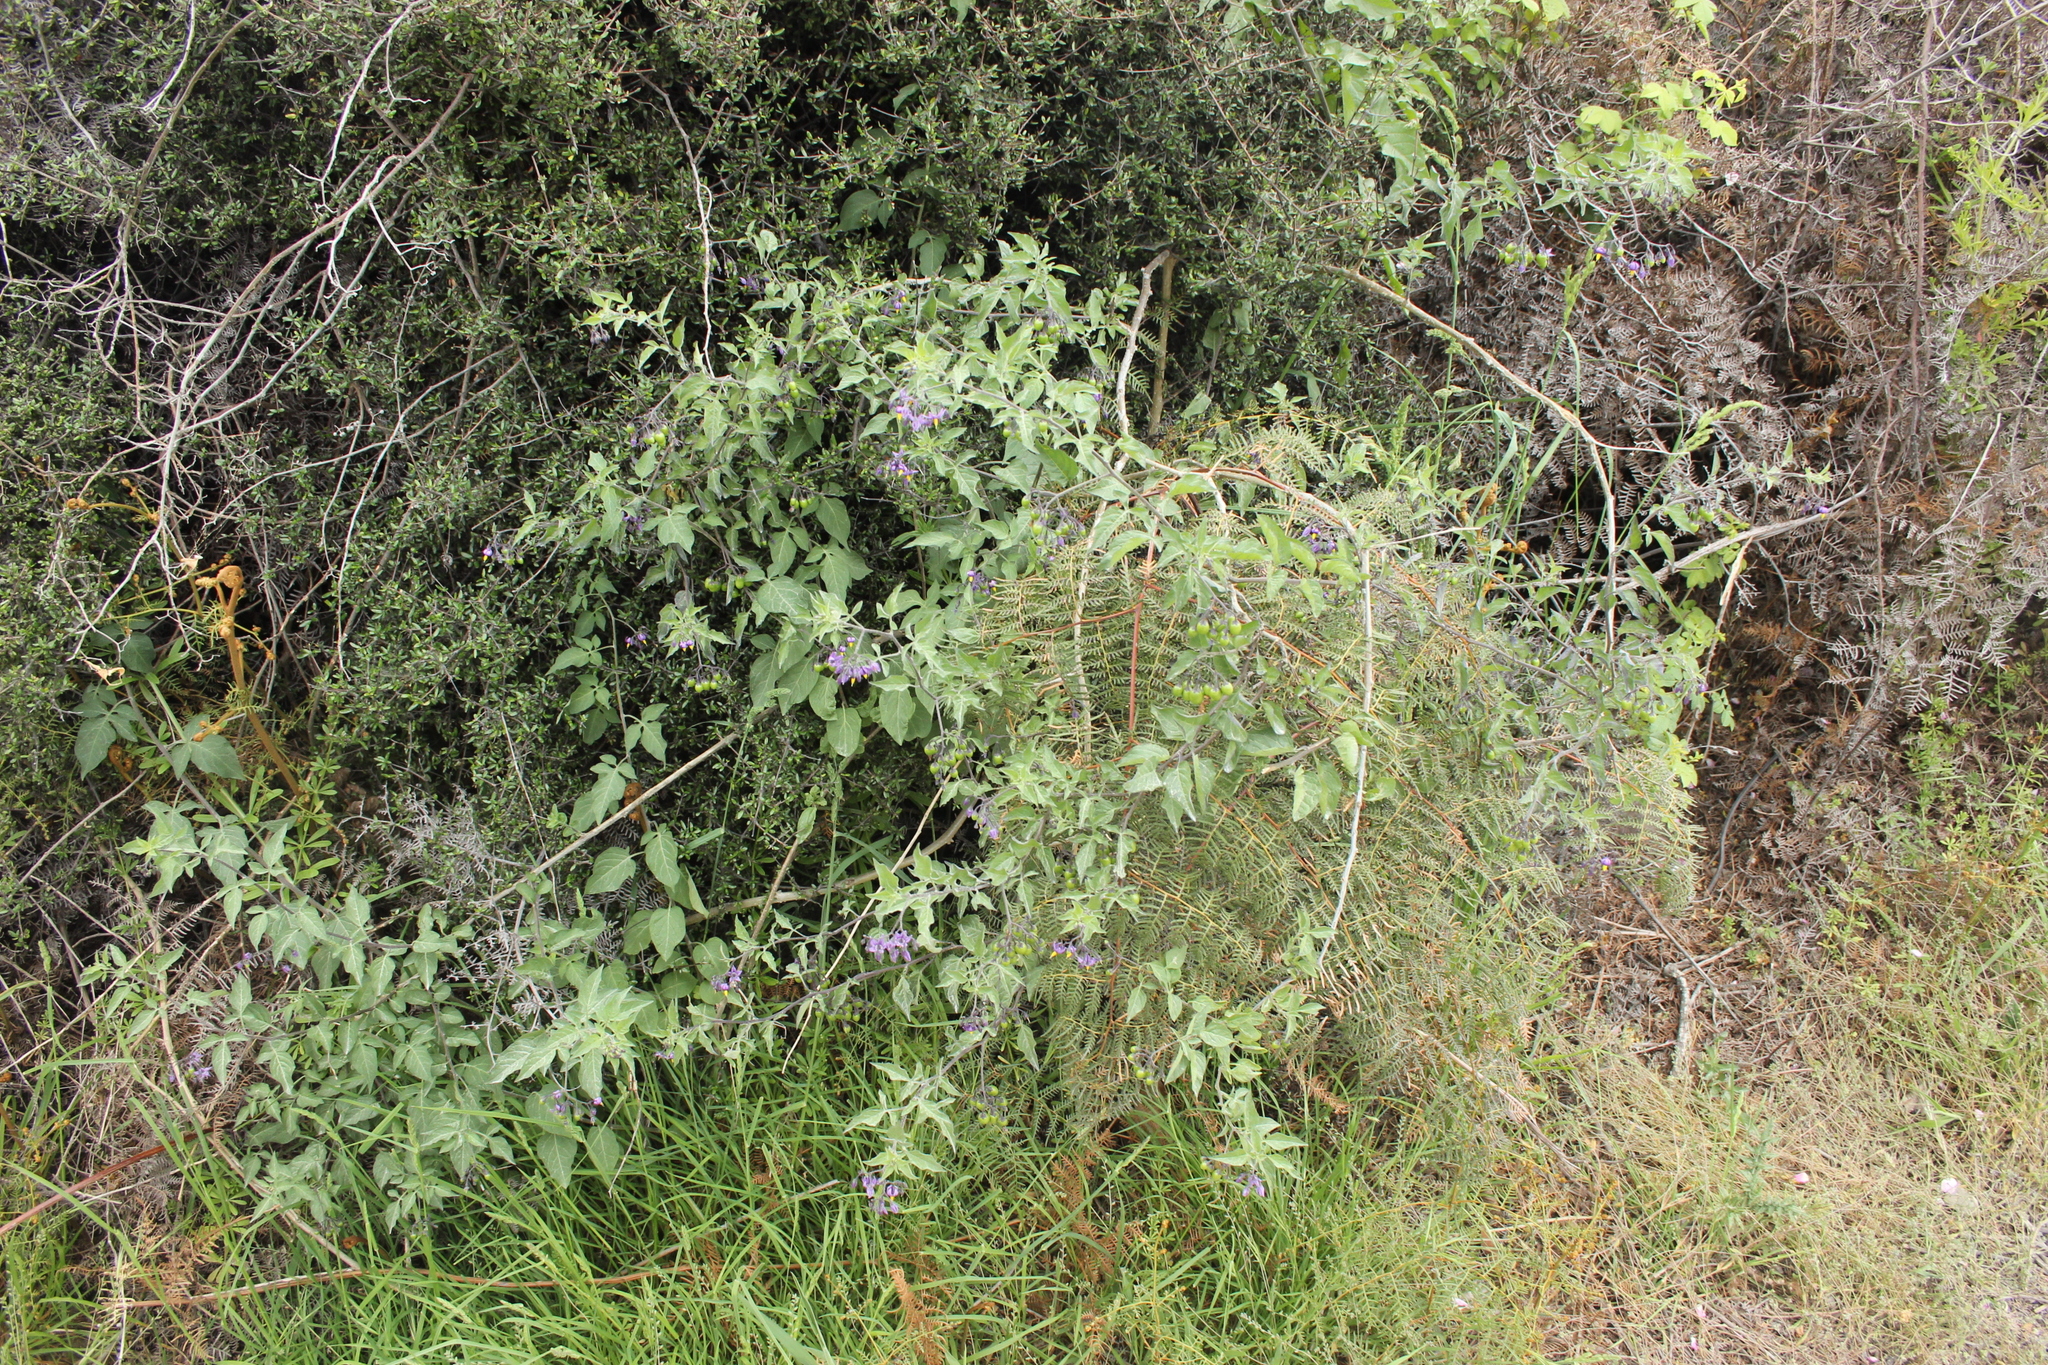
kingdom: Plantae
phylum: Tracheophyta
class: Magnoliopsida
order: Solanales
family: Solanaceae
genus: Solanum
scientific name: Solanum dulcamara
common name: Climbing nightshade
